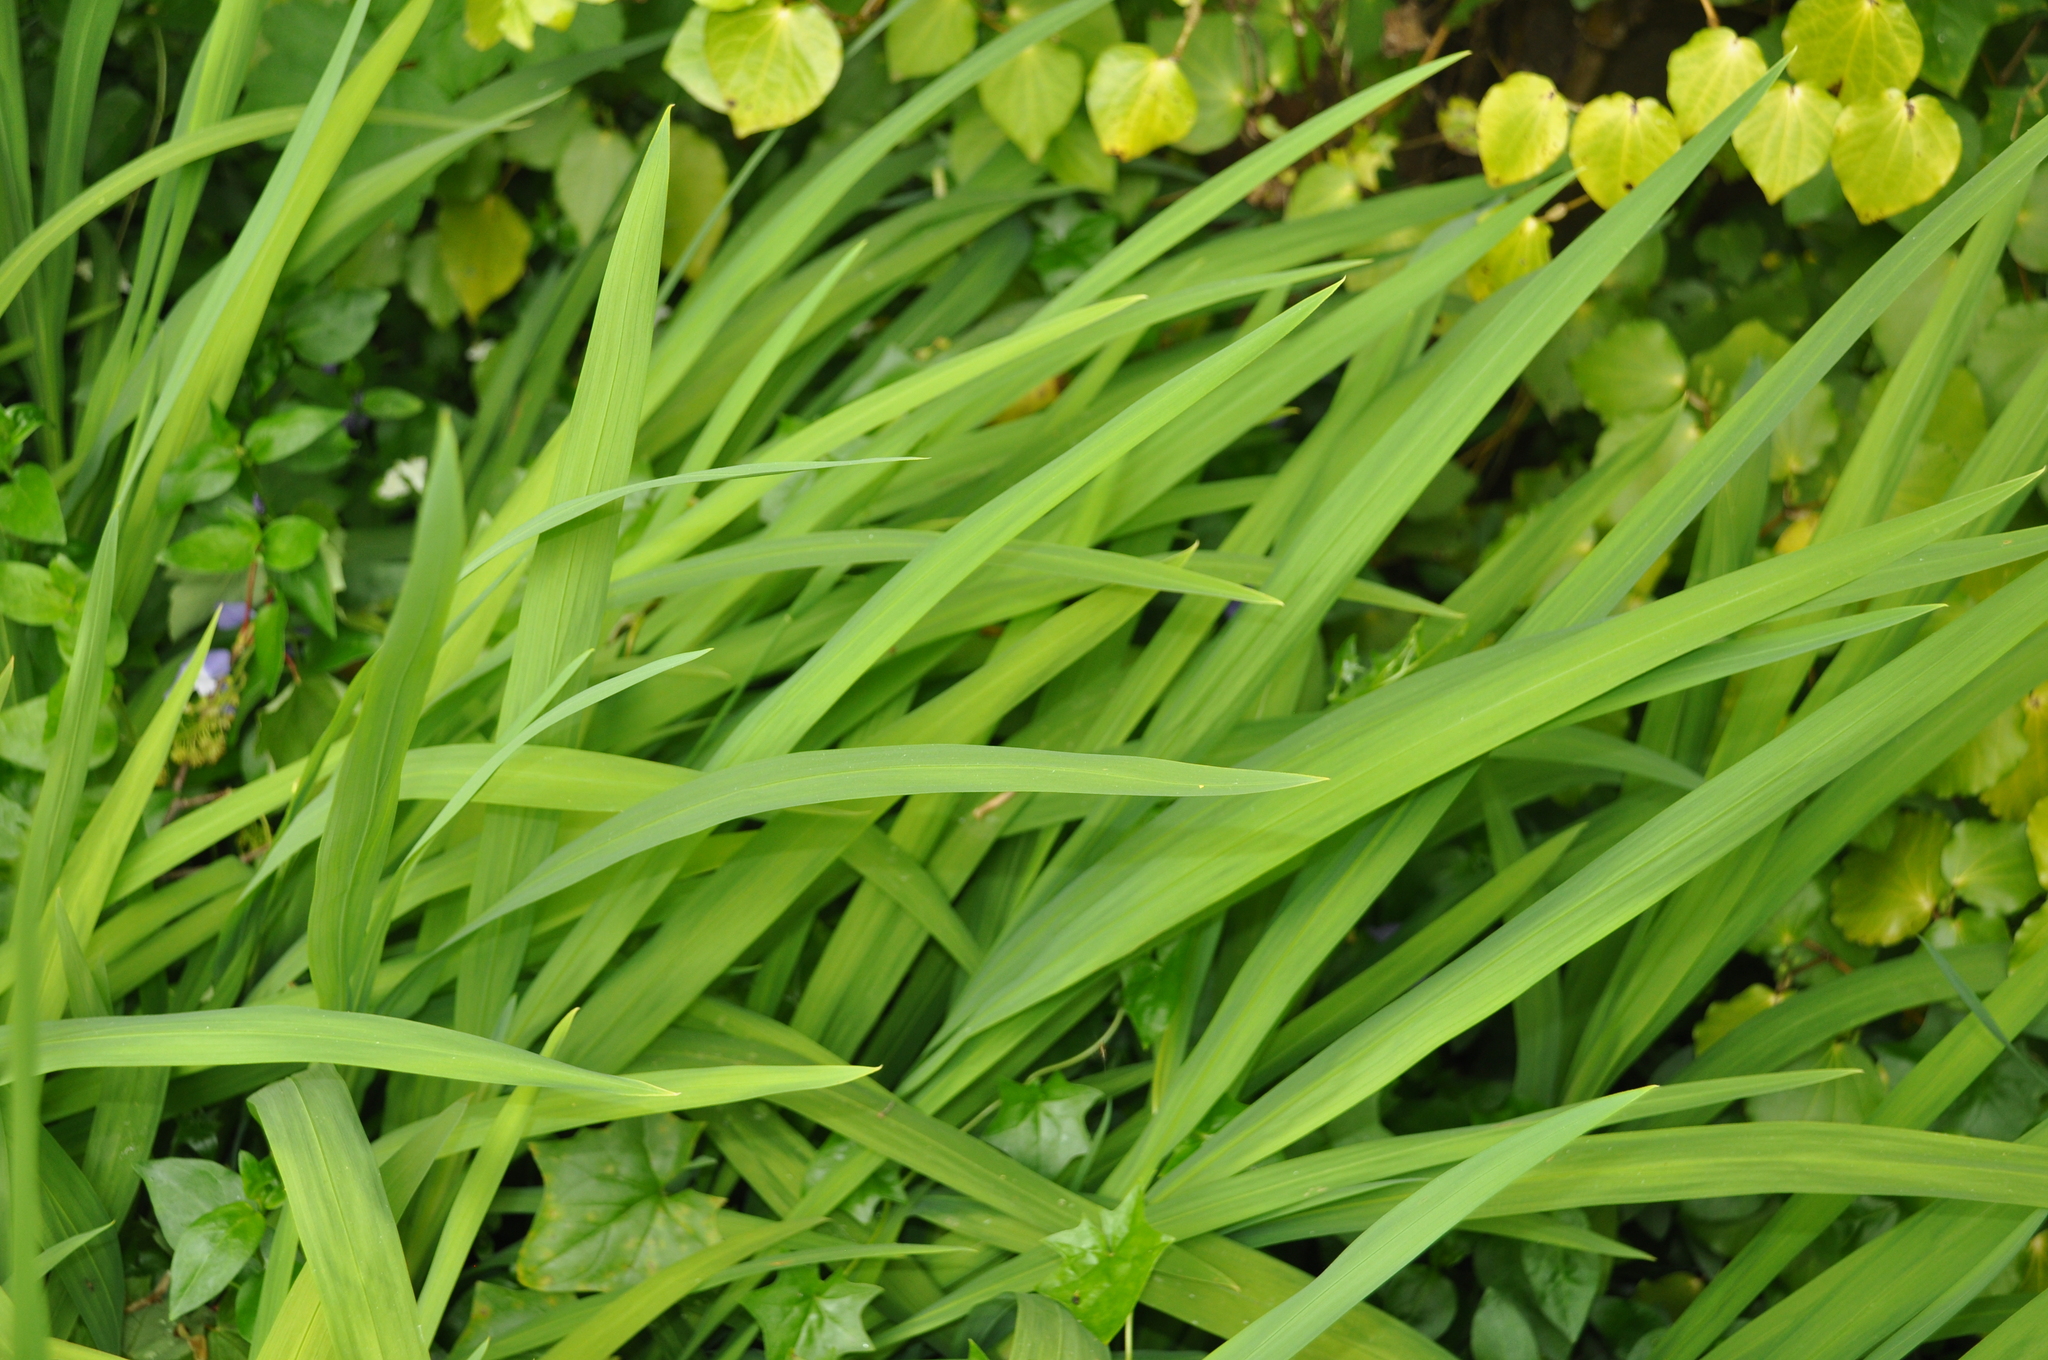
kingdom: Plantae
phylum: Tracheophyta
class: Liliopsida
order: Asparagales
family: Iridaceae
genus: Crocosmia
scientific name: Crocosmia crocosmiiflora
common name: Montbretia
